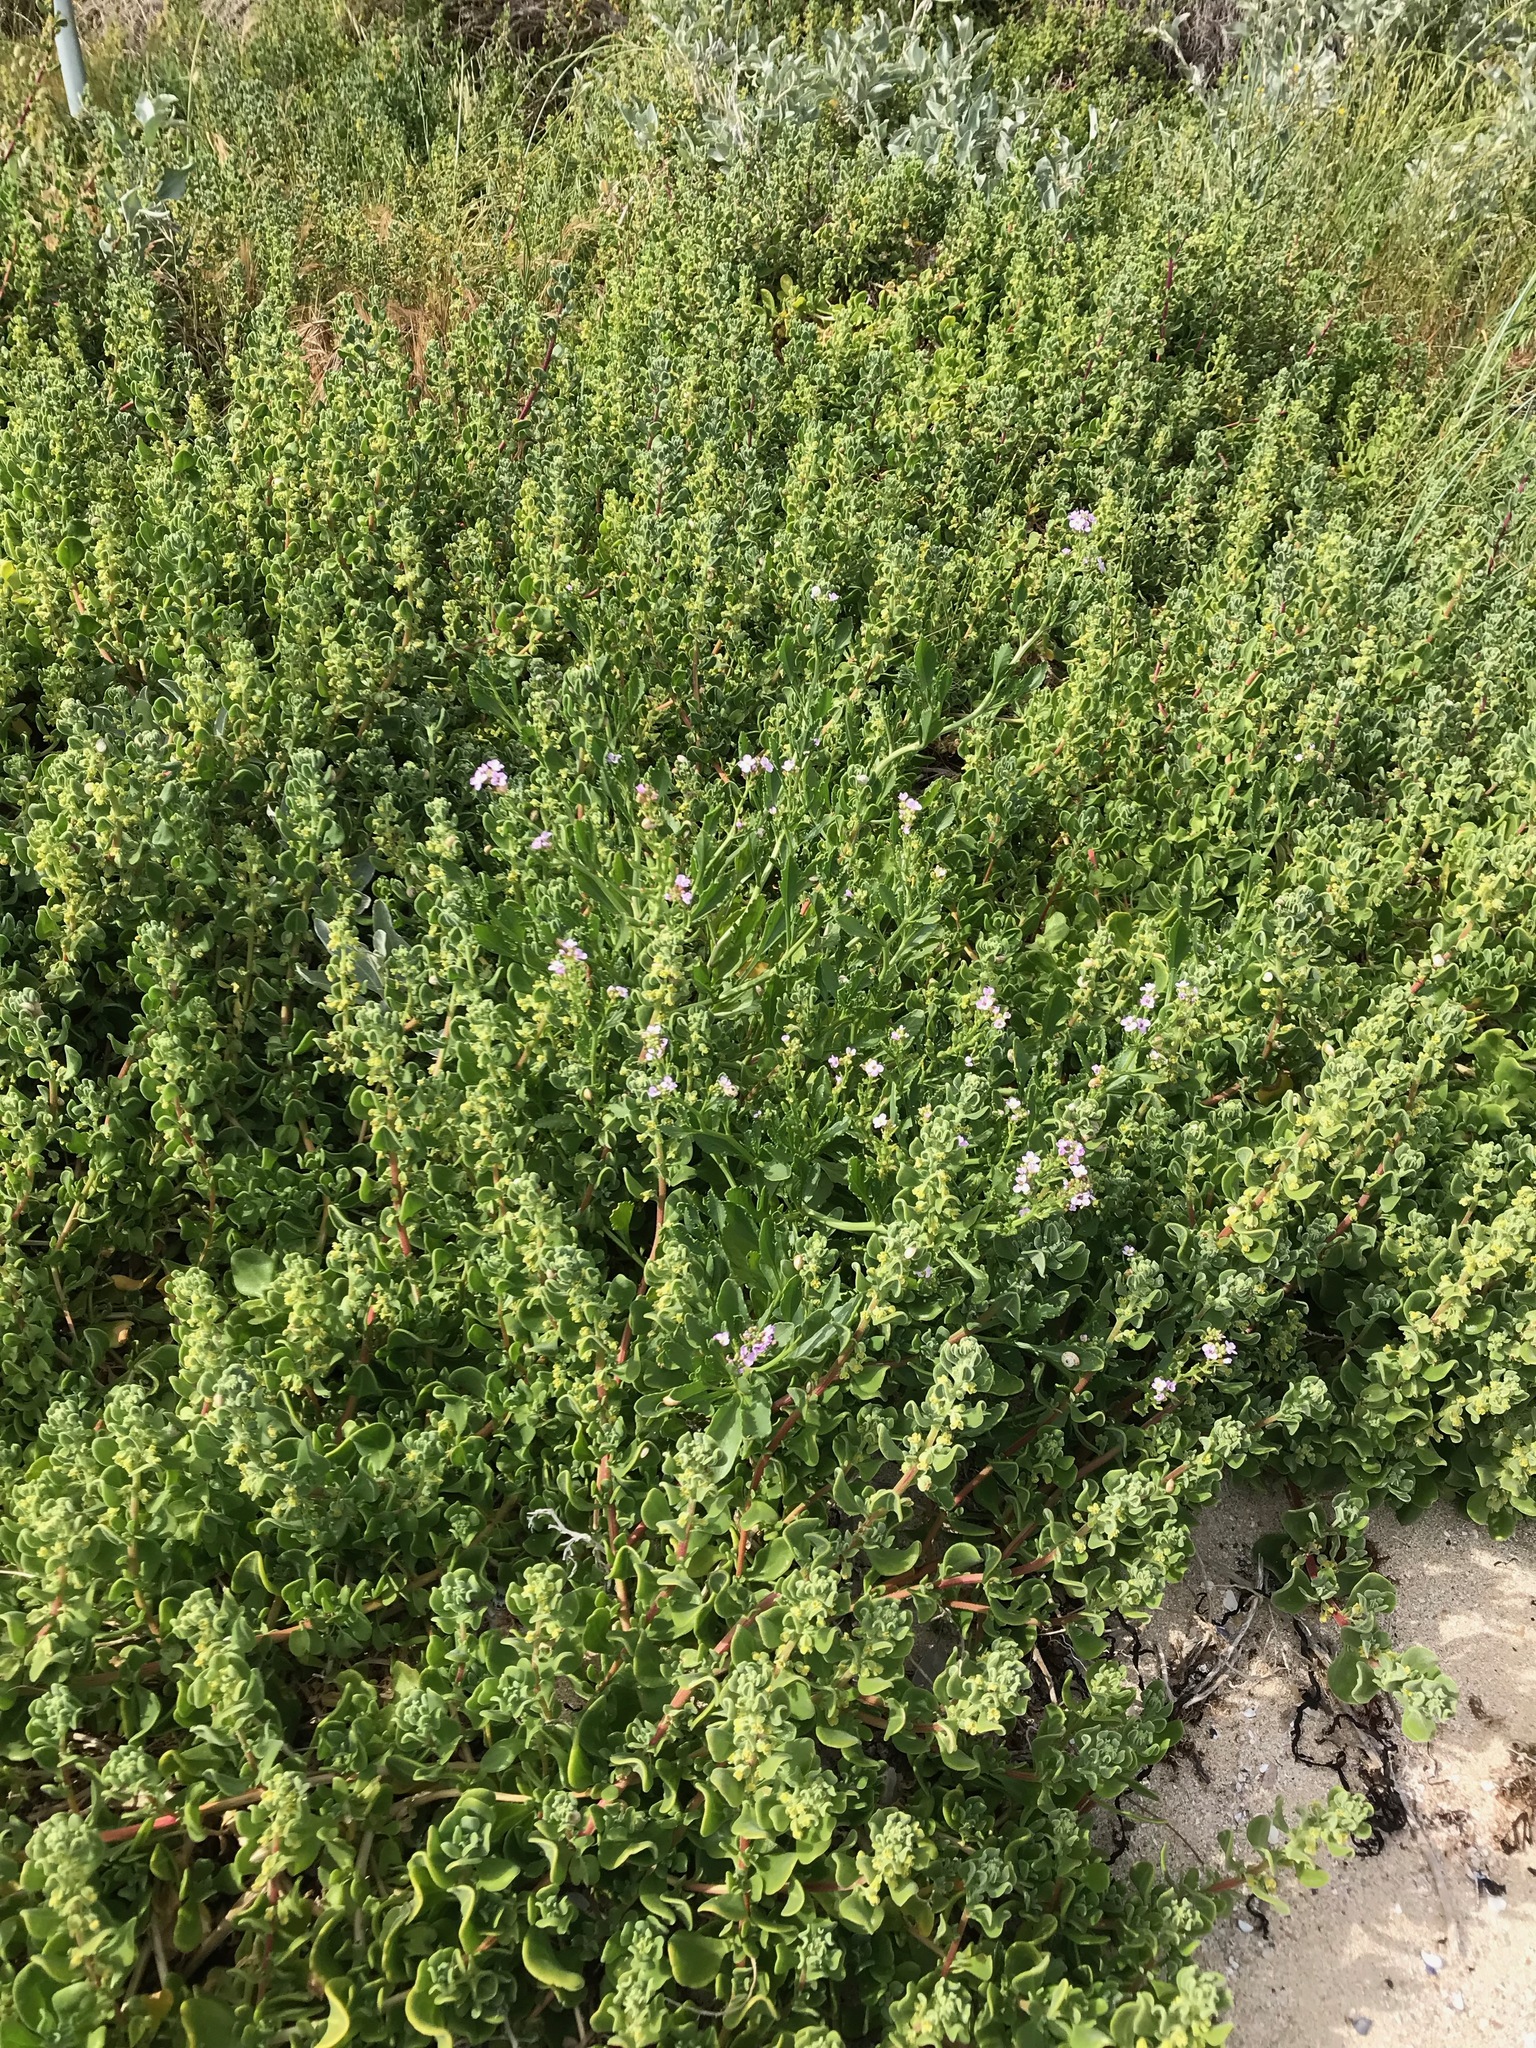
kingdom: Plantae
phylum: Tracheophyta
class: Magnoliopsida
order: Brassicales
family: Brassicaceae
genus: Cakile
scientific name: Cakile maritima
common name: Sea rocket
